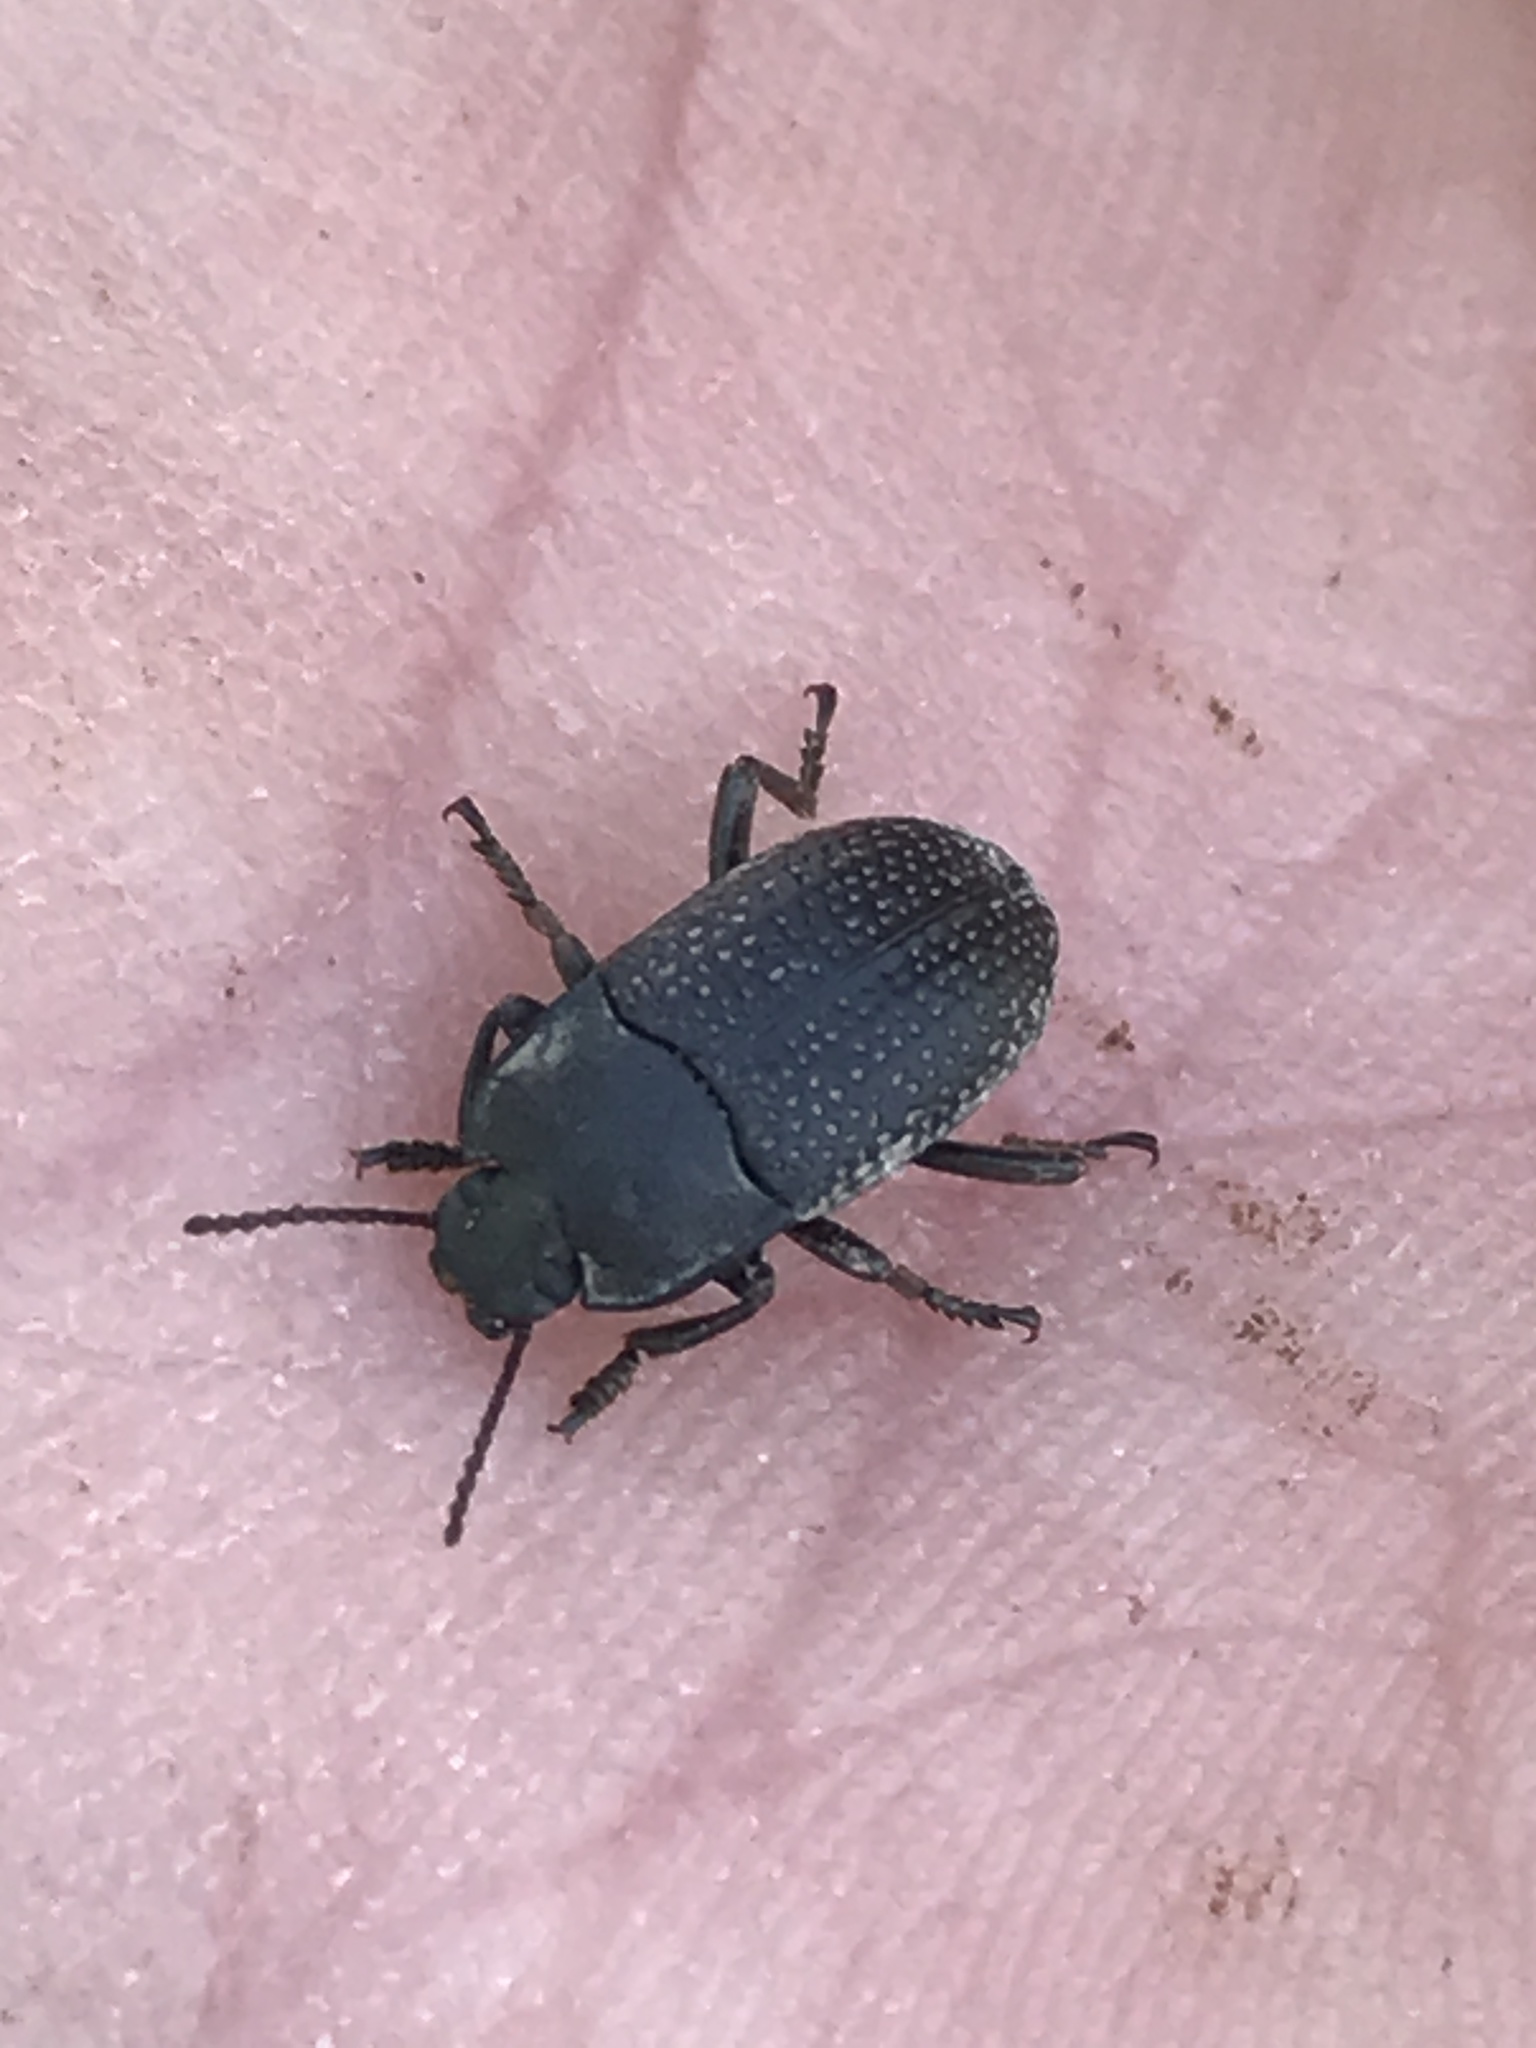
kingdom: Animalia
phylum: Arthropoda
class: Insecta
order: Coleoptera
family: Tenebrionidae
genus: Asiopus
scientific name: Asiopus
